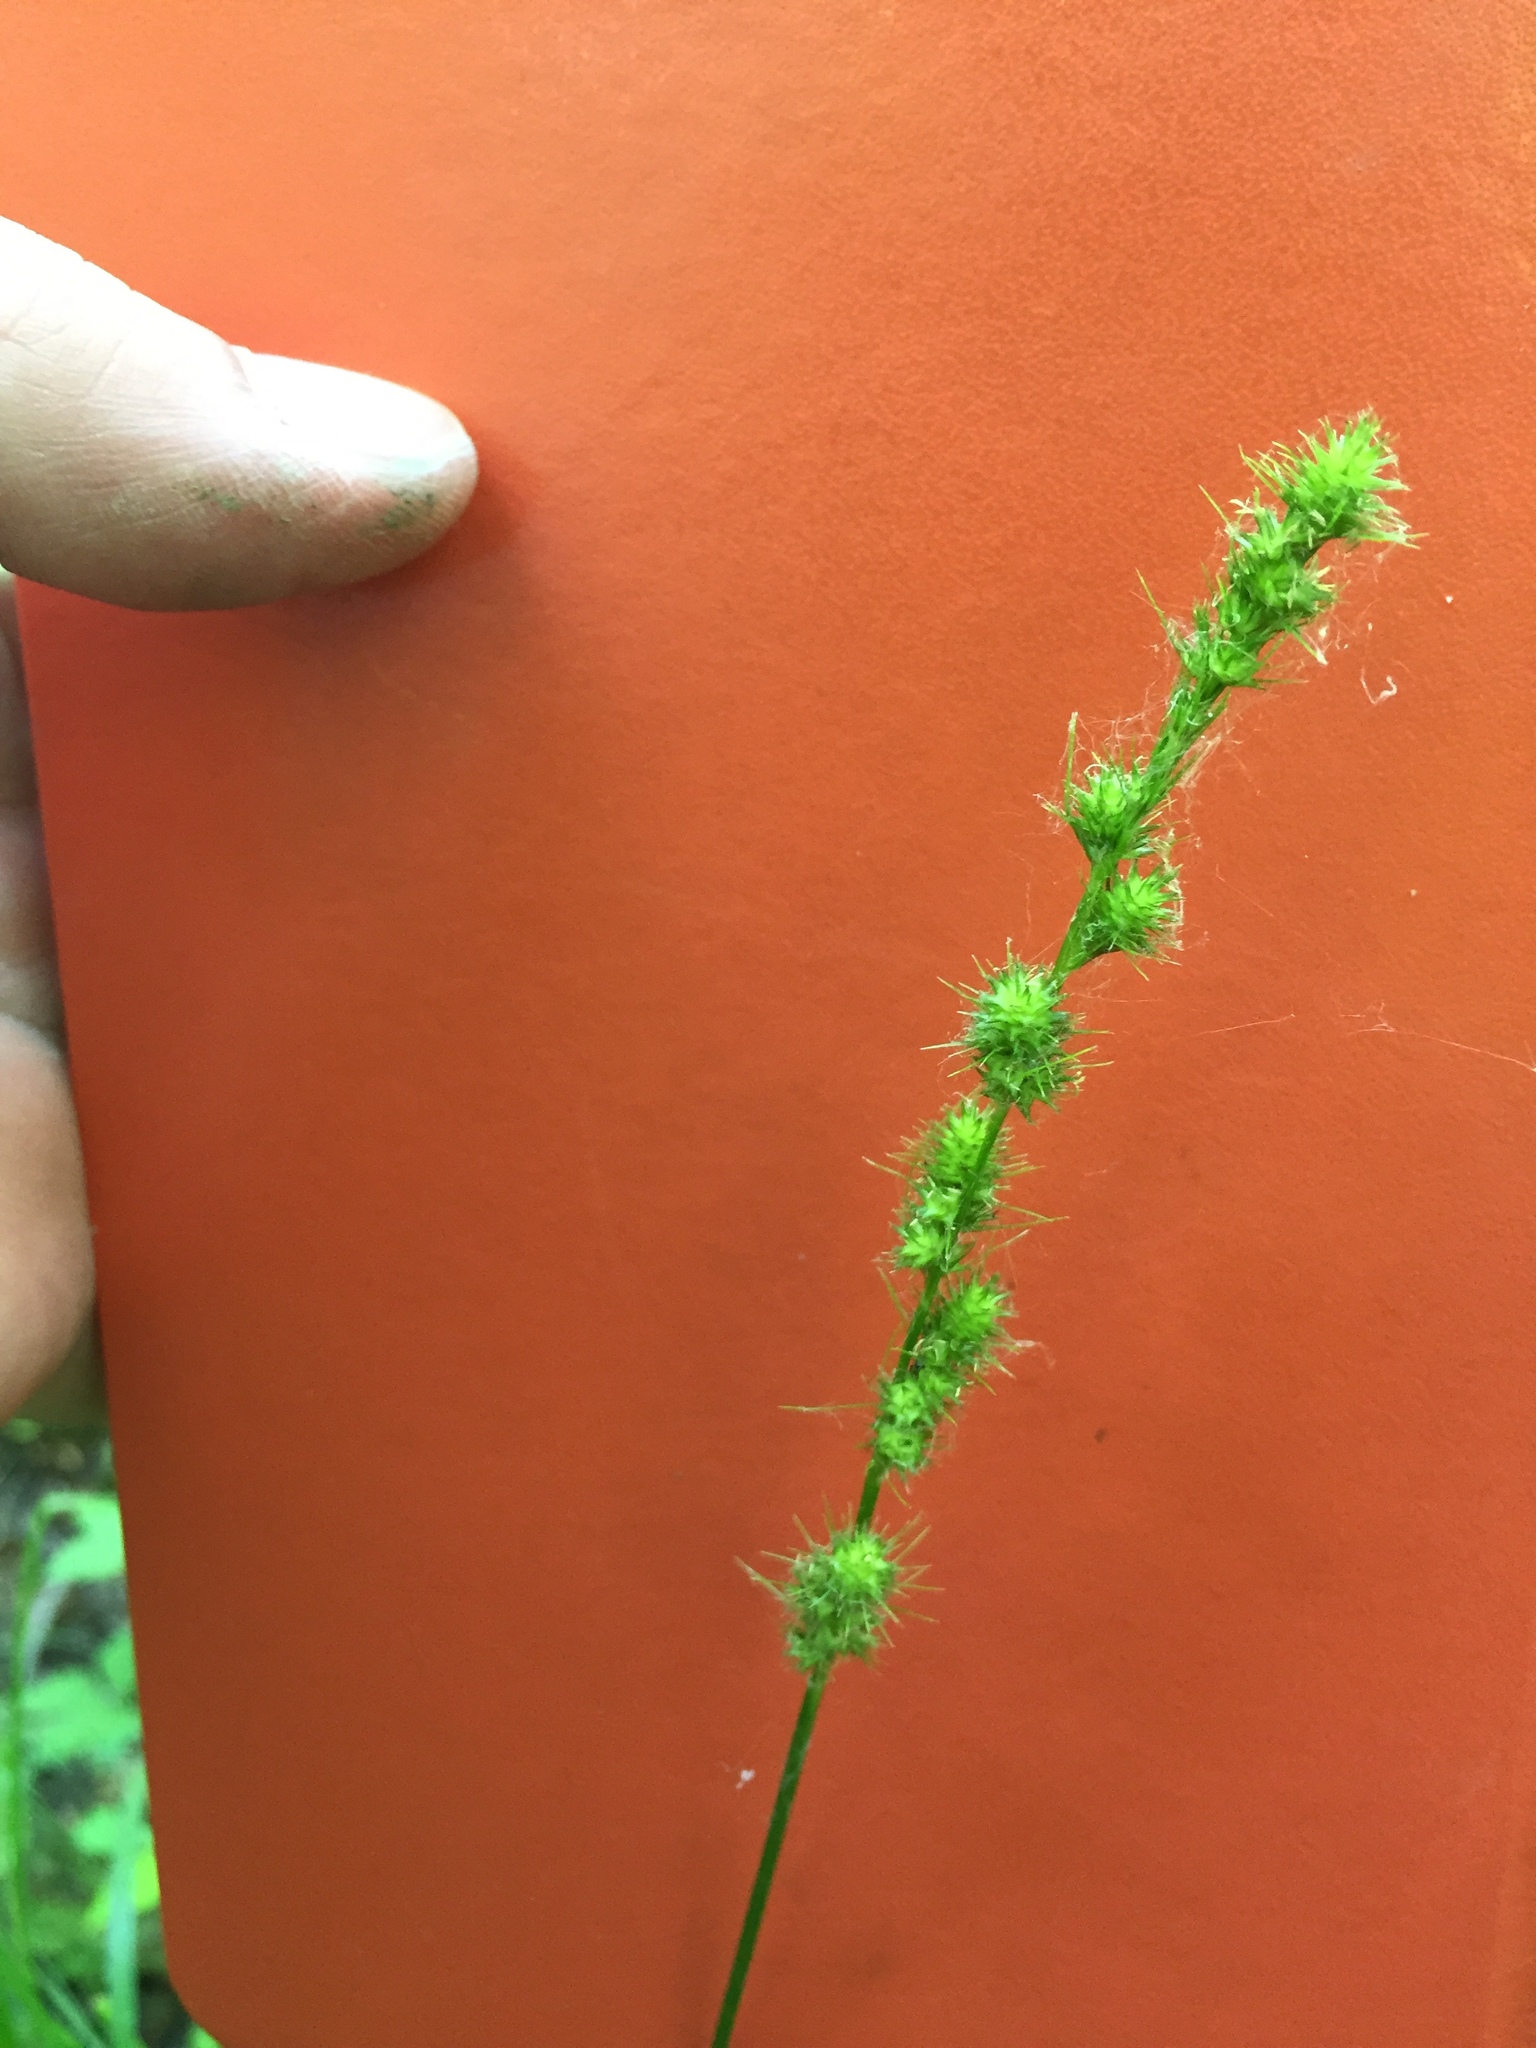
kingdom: Plantae
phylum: Tracheophyta
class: Liliopsida
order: Poales
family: Cyperaceae
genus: Carex
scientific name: Carex sparganioides
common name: Burreed sedge
